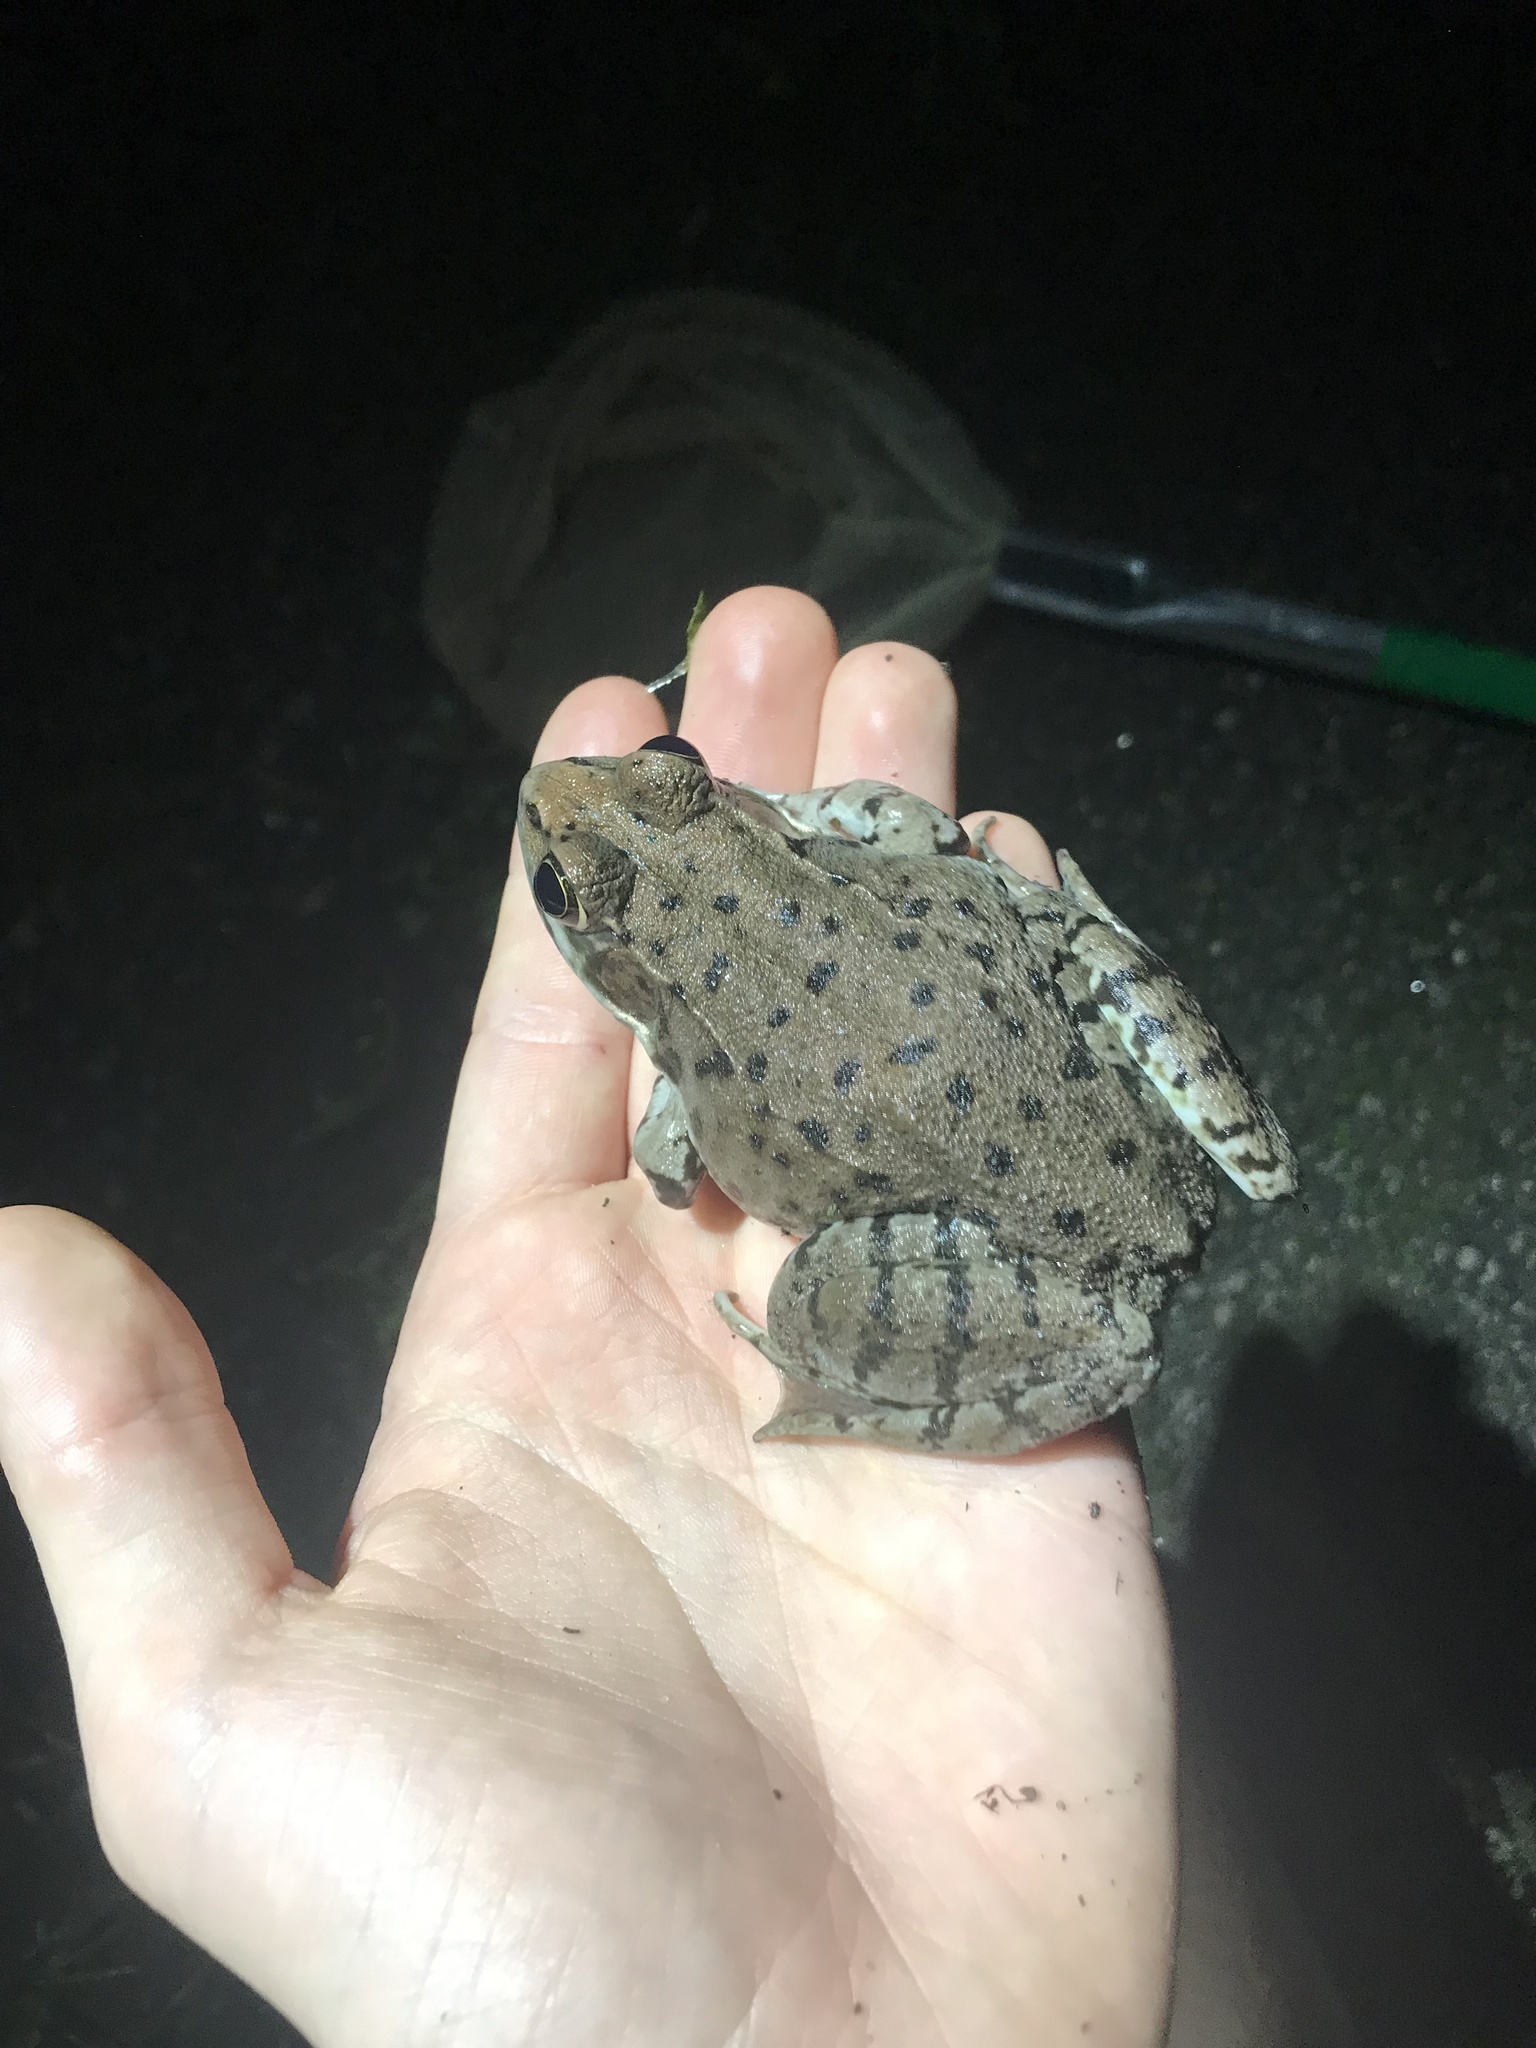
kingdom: Animalia
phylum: Chordata
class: Amphibia
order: Anura
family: Ranidae
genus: Lithobates
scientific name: Lithobates clamitans
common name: Green frog
